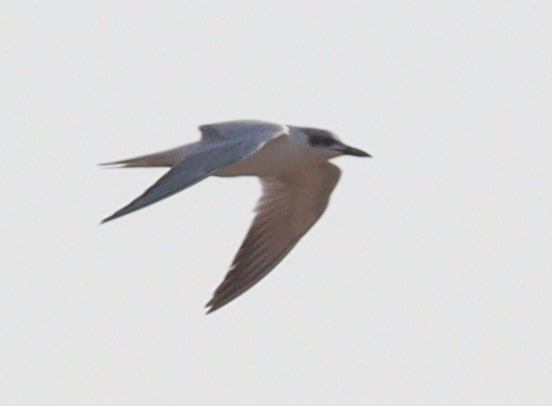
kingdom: Animalia
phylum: Chordata
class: Aves
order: Charadriiformes
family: Laridae
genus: Gelochelidon
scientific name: Gelochelidon nilotica
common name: Gull-billed tern
